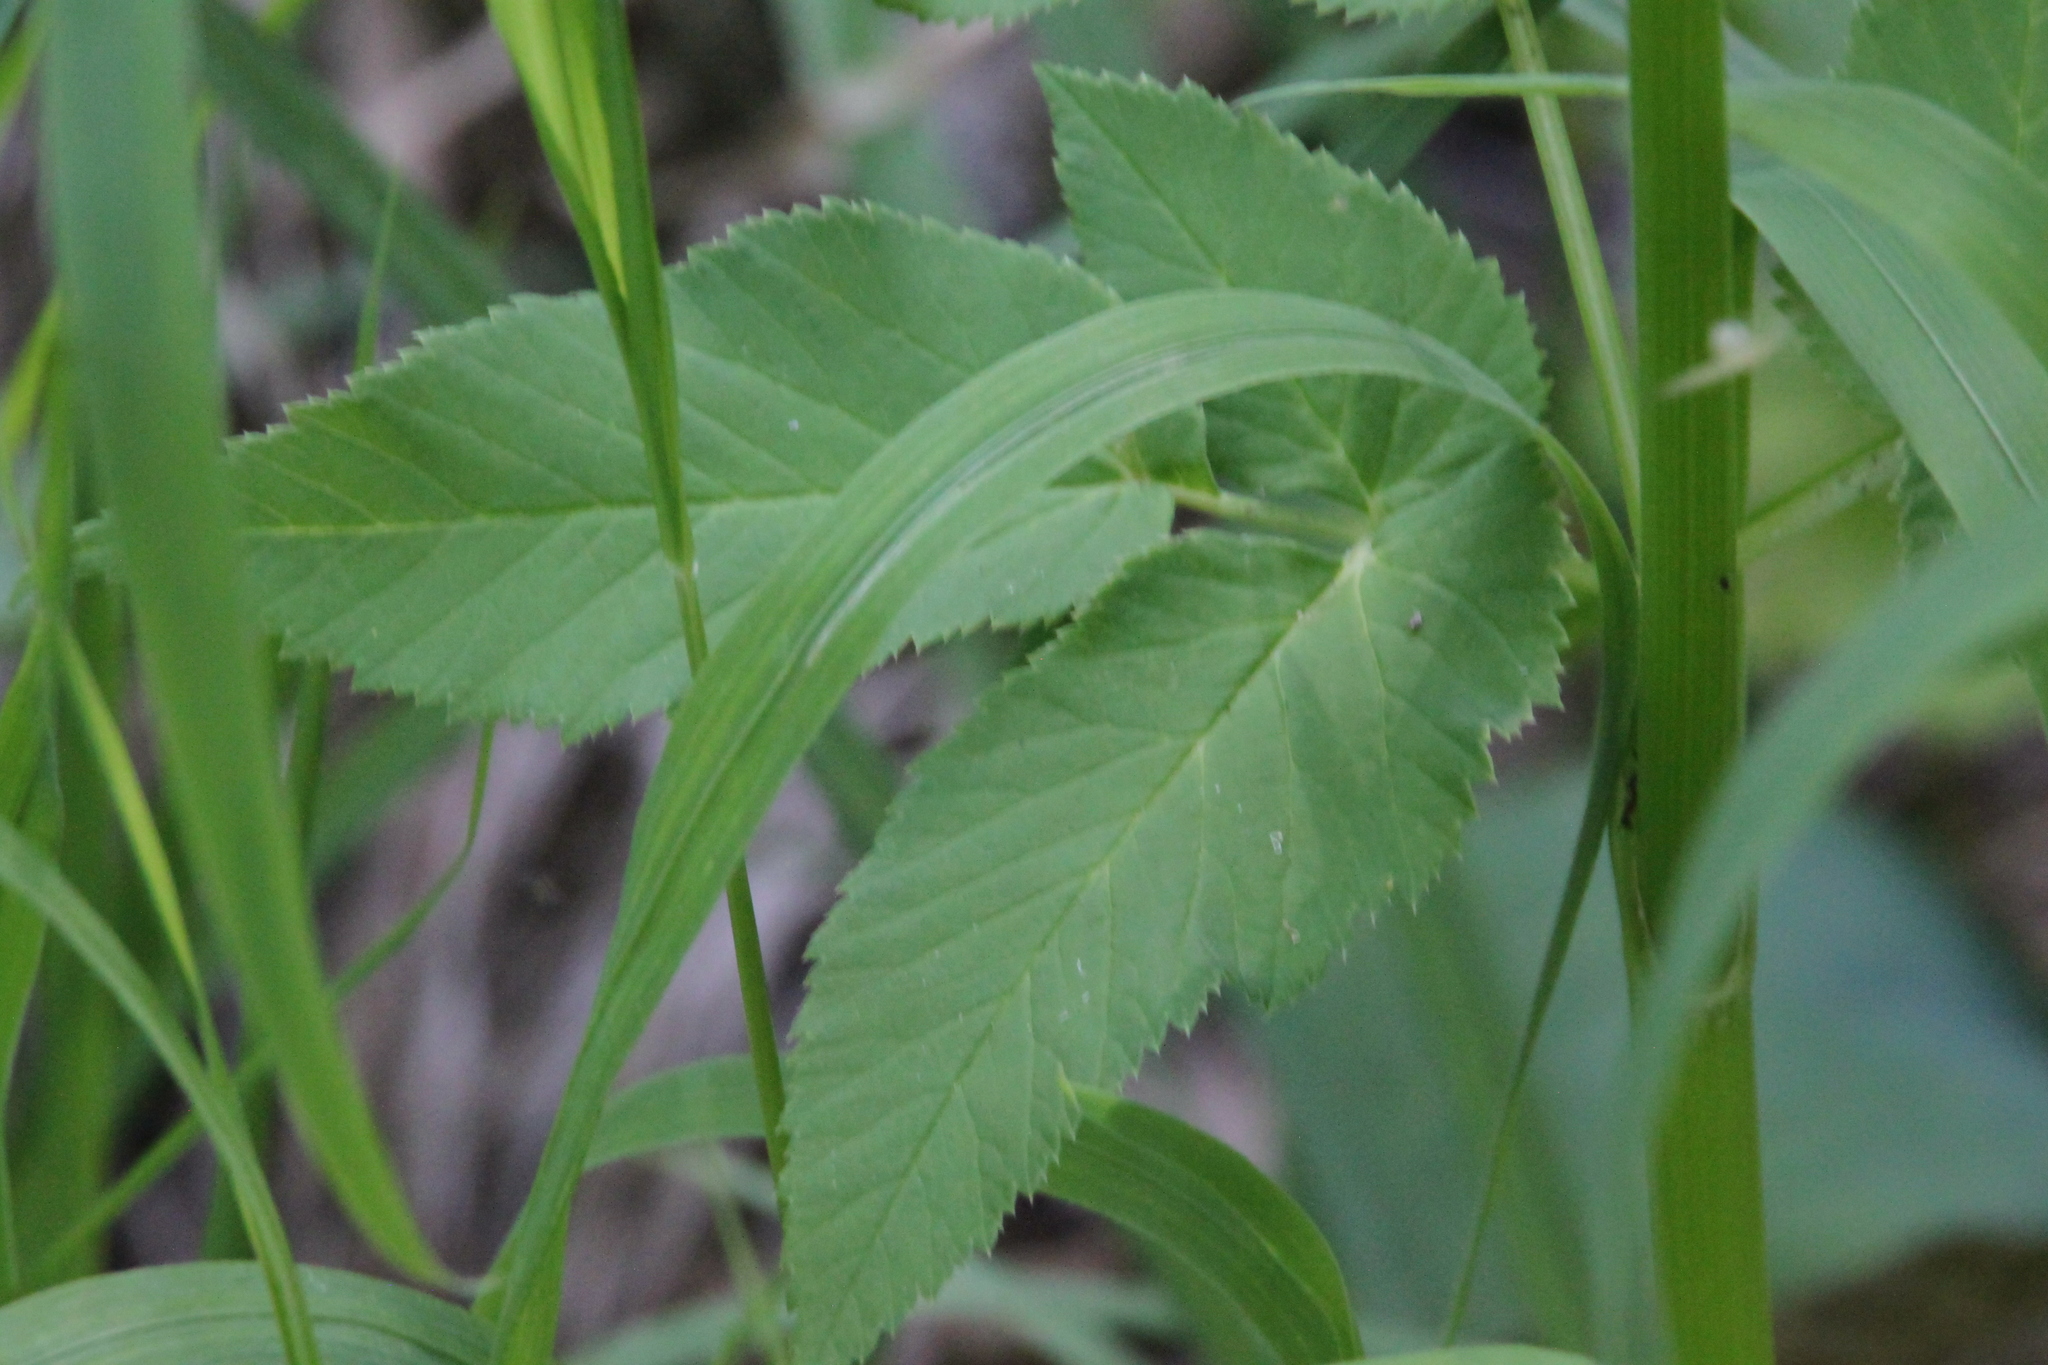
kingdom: Plantae
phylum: Tracheophyta
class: Magnoliopsida
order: Apiales
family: Apiaceae
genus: Aegopodium
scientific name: Aegopodium podagraria
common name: Ground-elder
